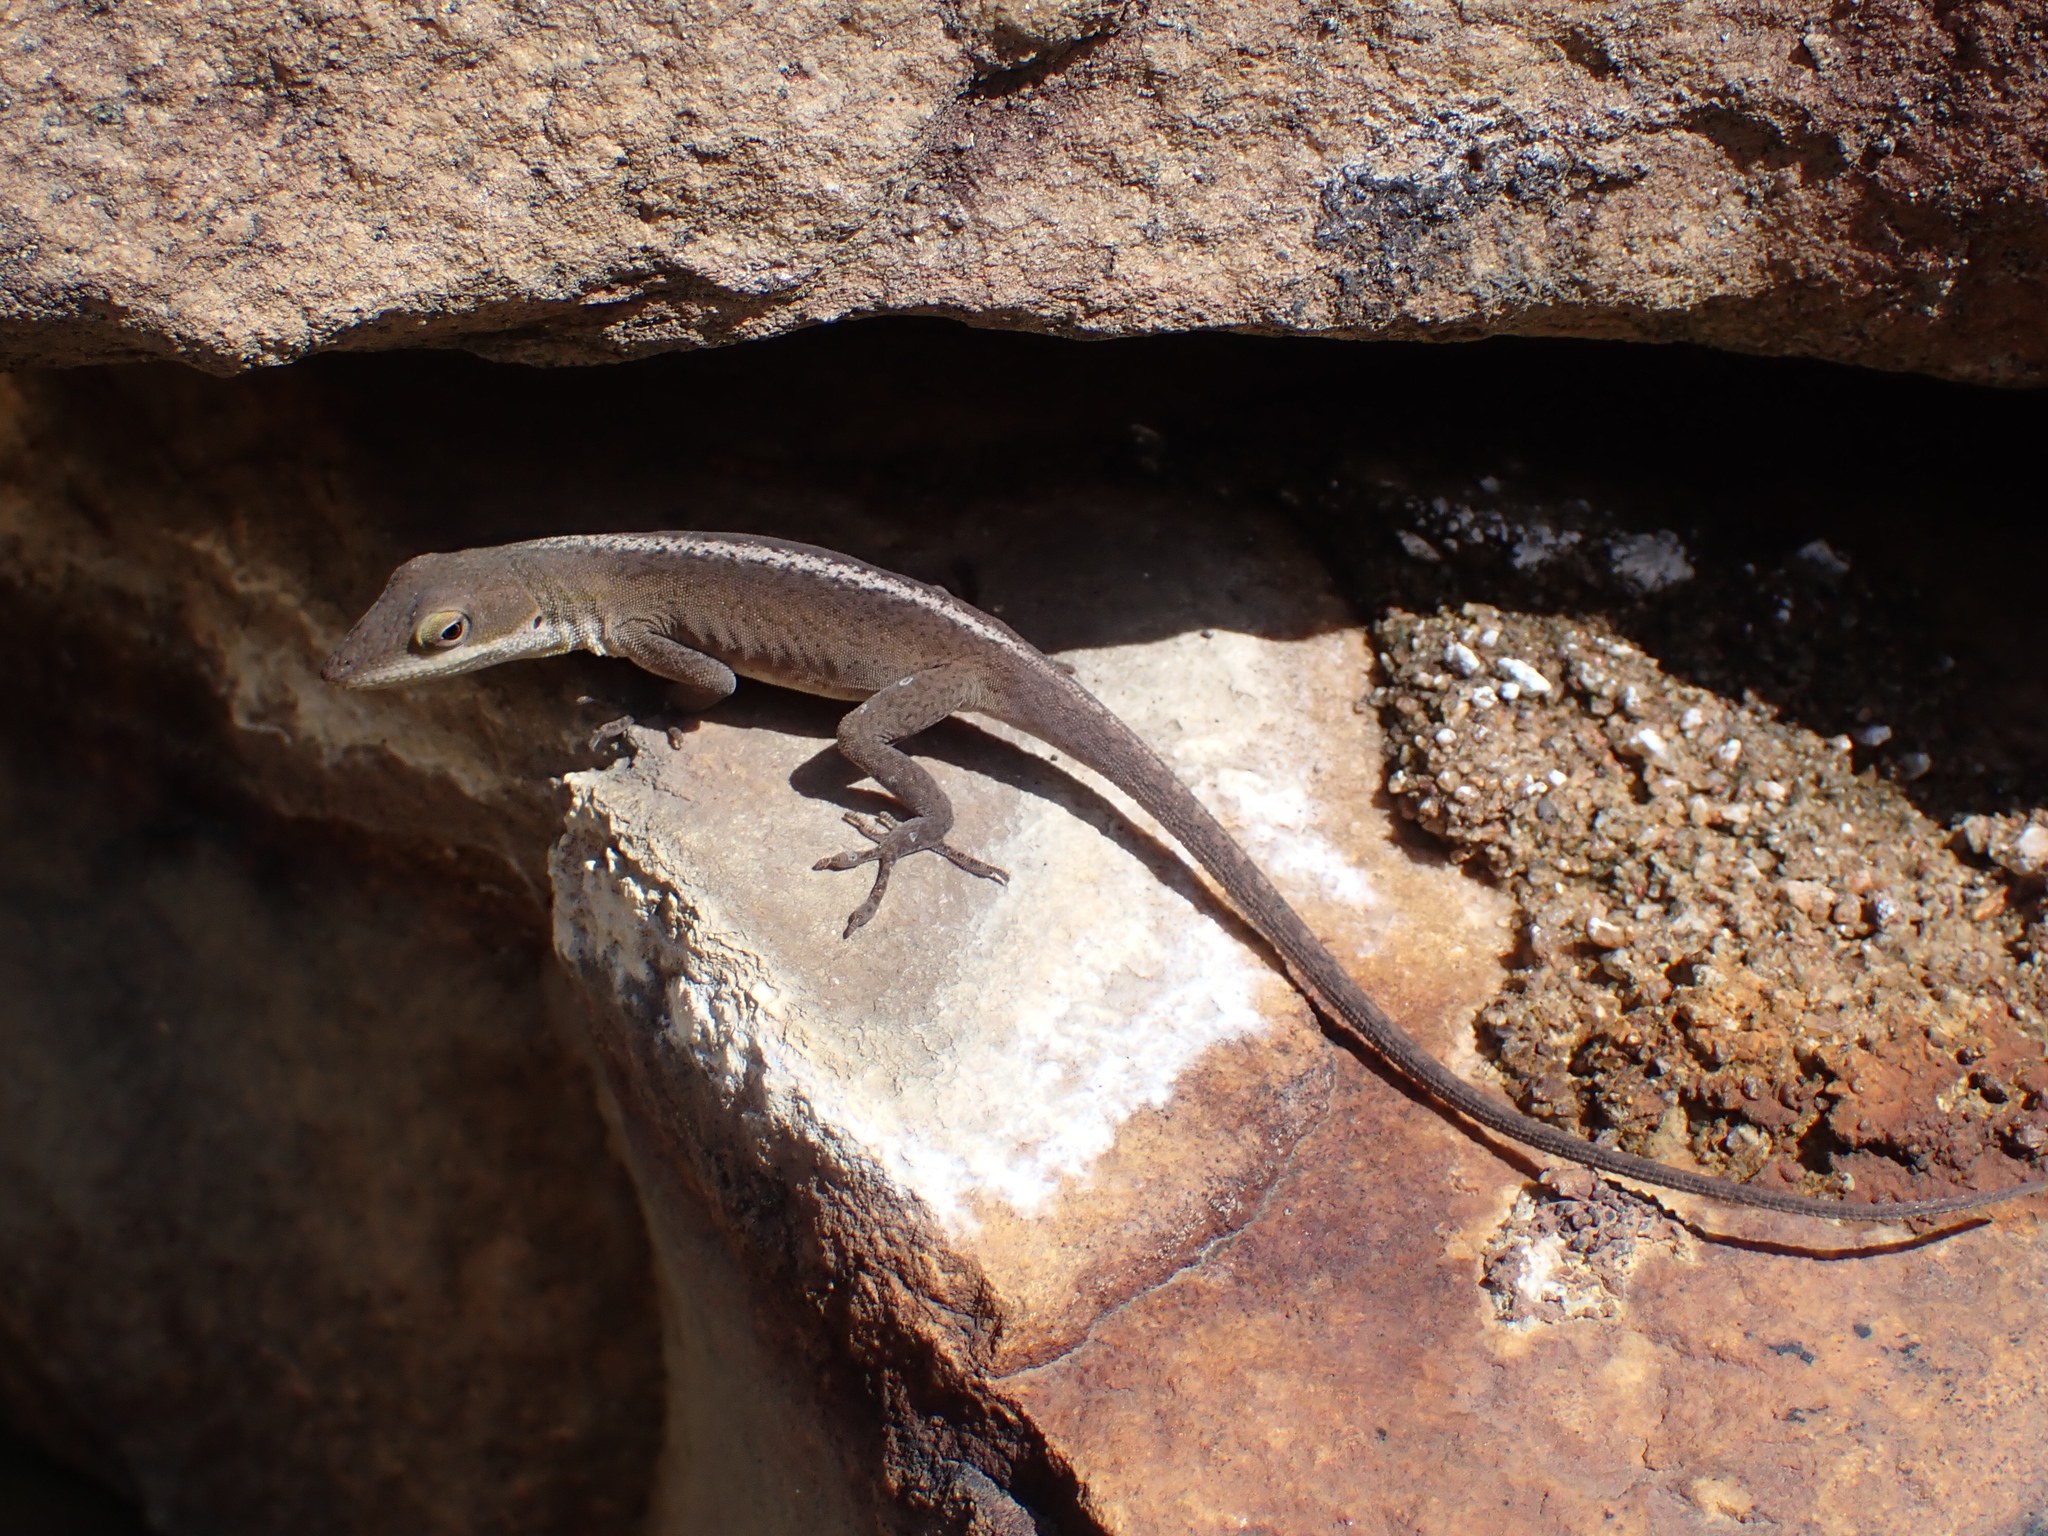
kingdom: Animalia
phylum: Chordata
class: Squamata
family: Dactyloidae
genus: Anolis
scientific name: Anolis carolinensis
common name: Green anole
